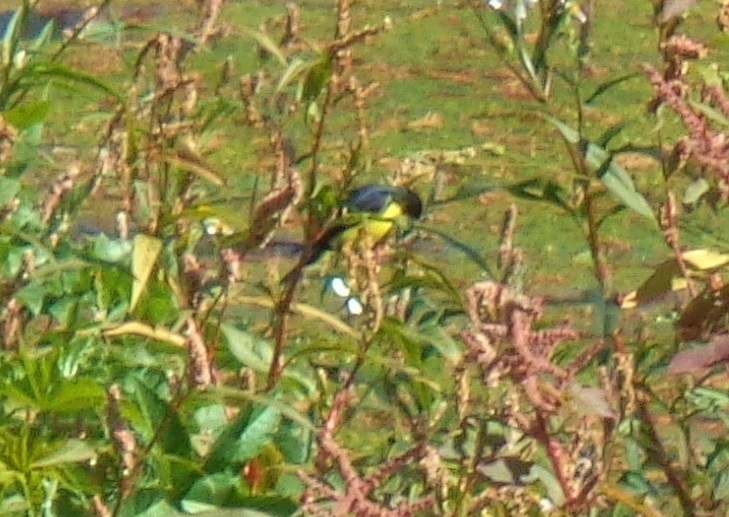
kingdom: Animalia
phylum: Chordata
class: Aves
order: Passeriformes
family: Fringillidae
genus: Spinus
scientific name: Spinus psaltria
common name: Lesser goldfinch
